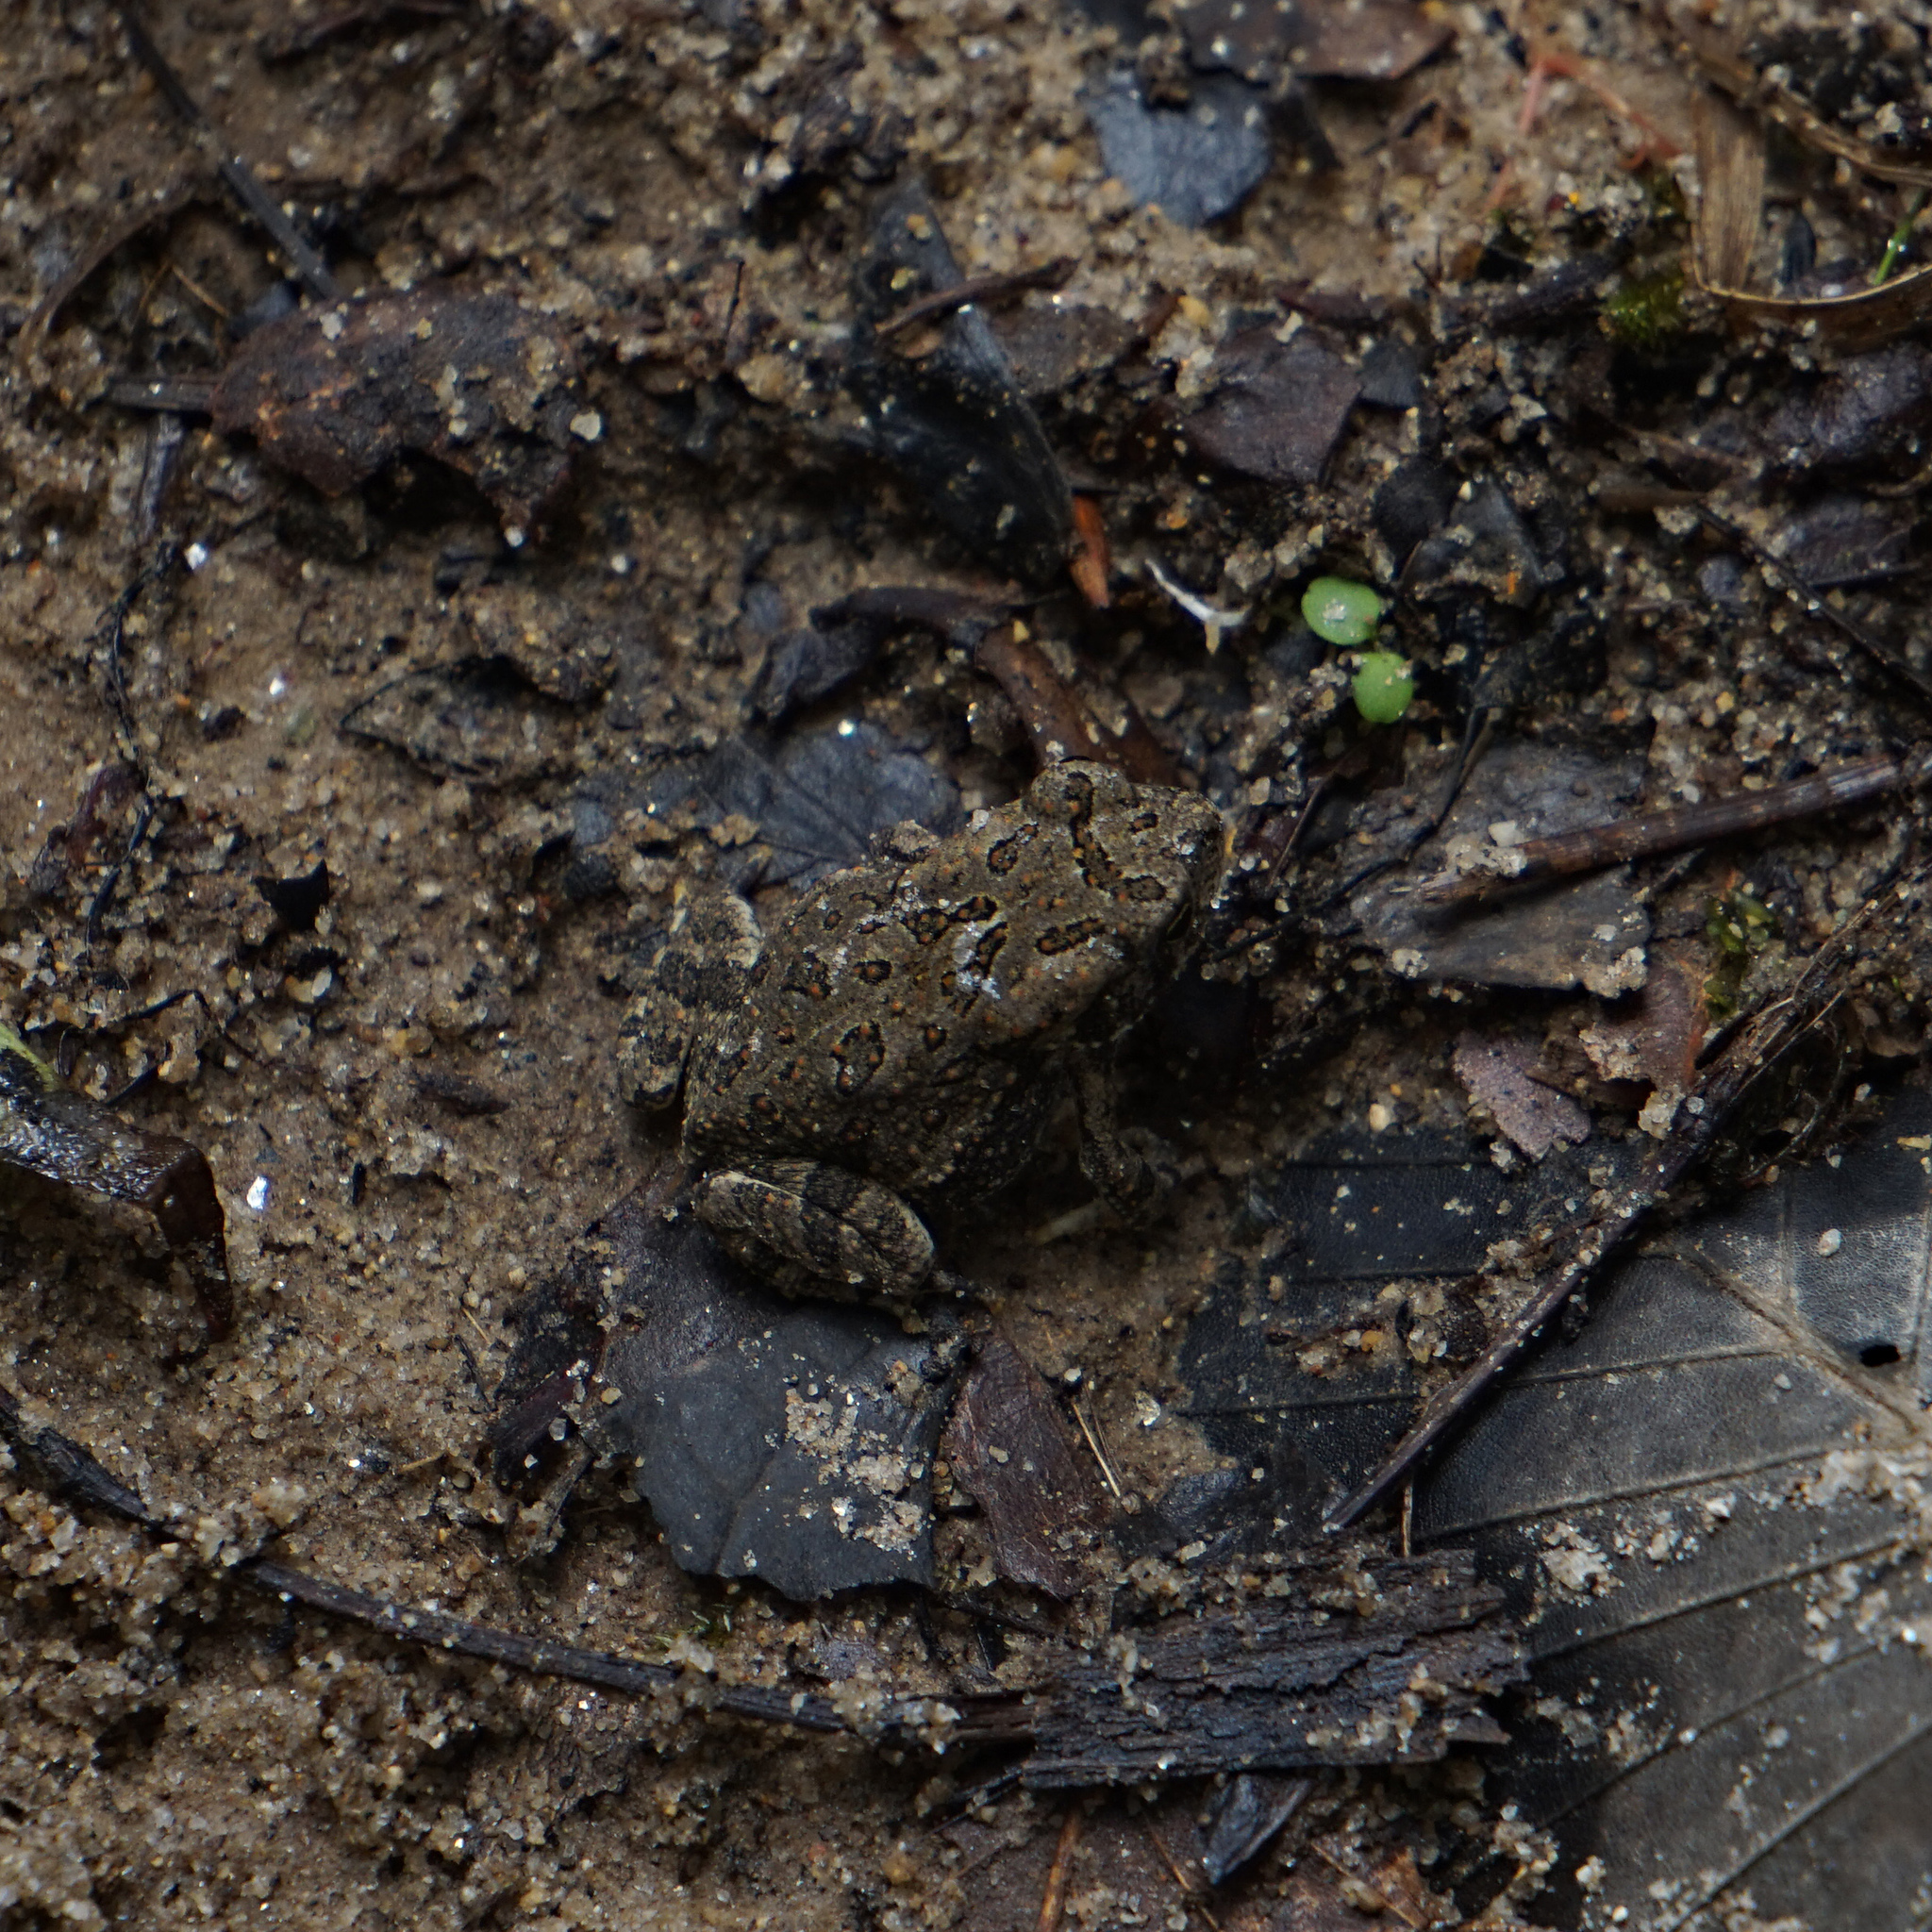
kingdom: Animalia
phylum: Chordata
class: Amphibia
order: Anura
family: Bufonidae
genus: Anaxyrus
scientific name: Anaxyrus fowleri
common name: Fowler's toad
